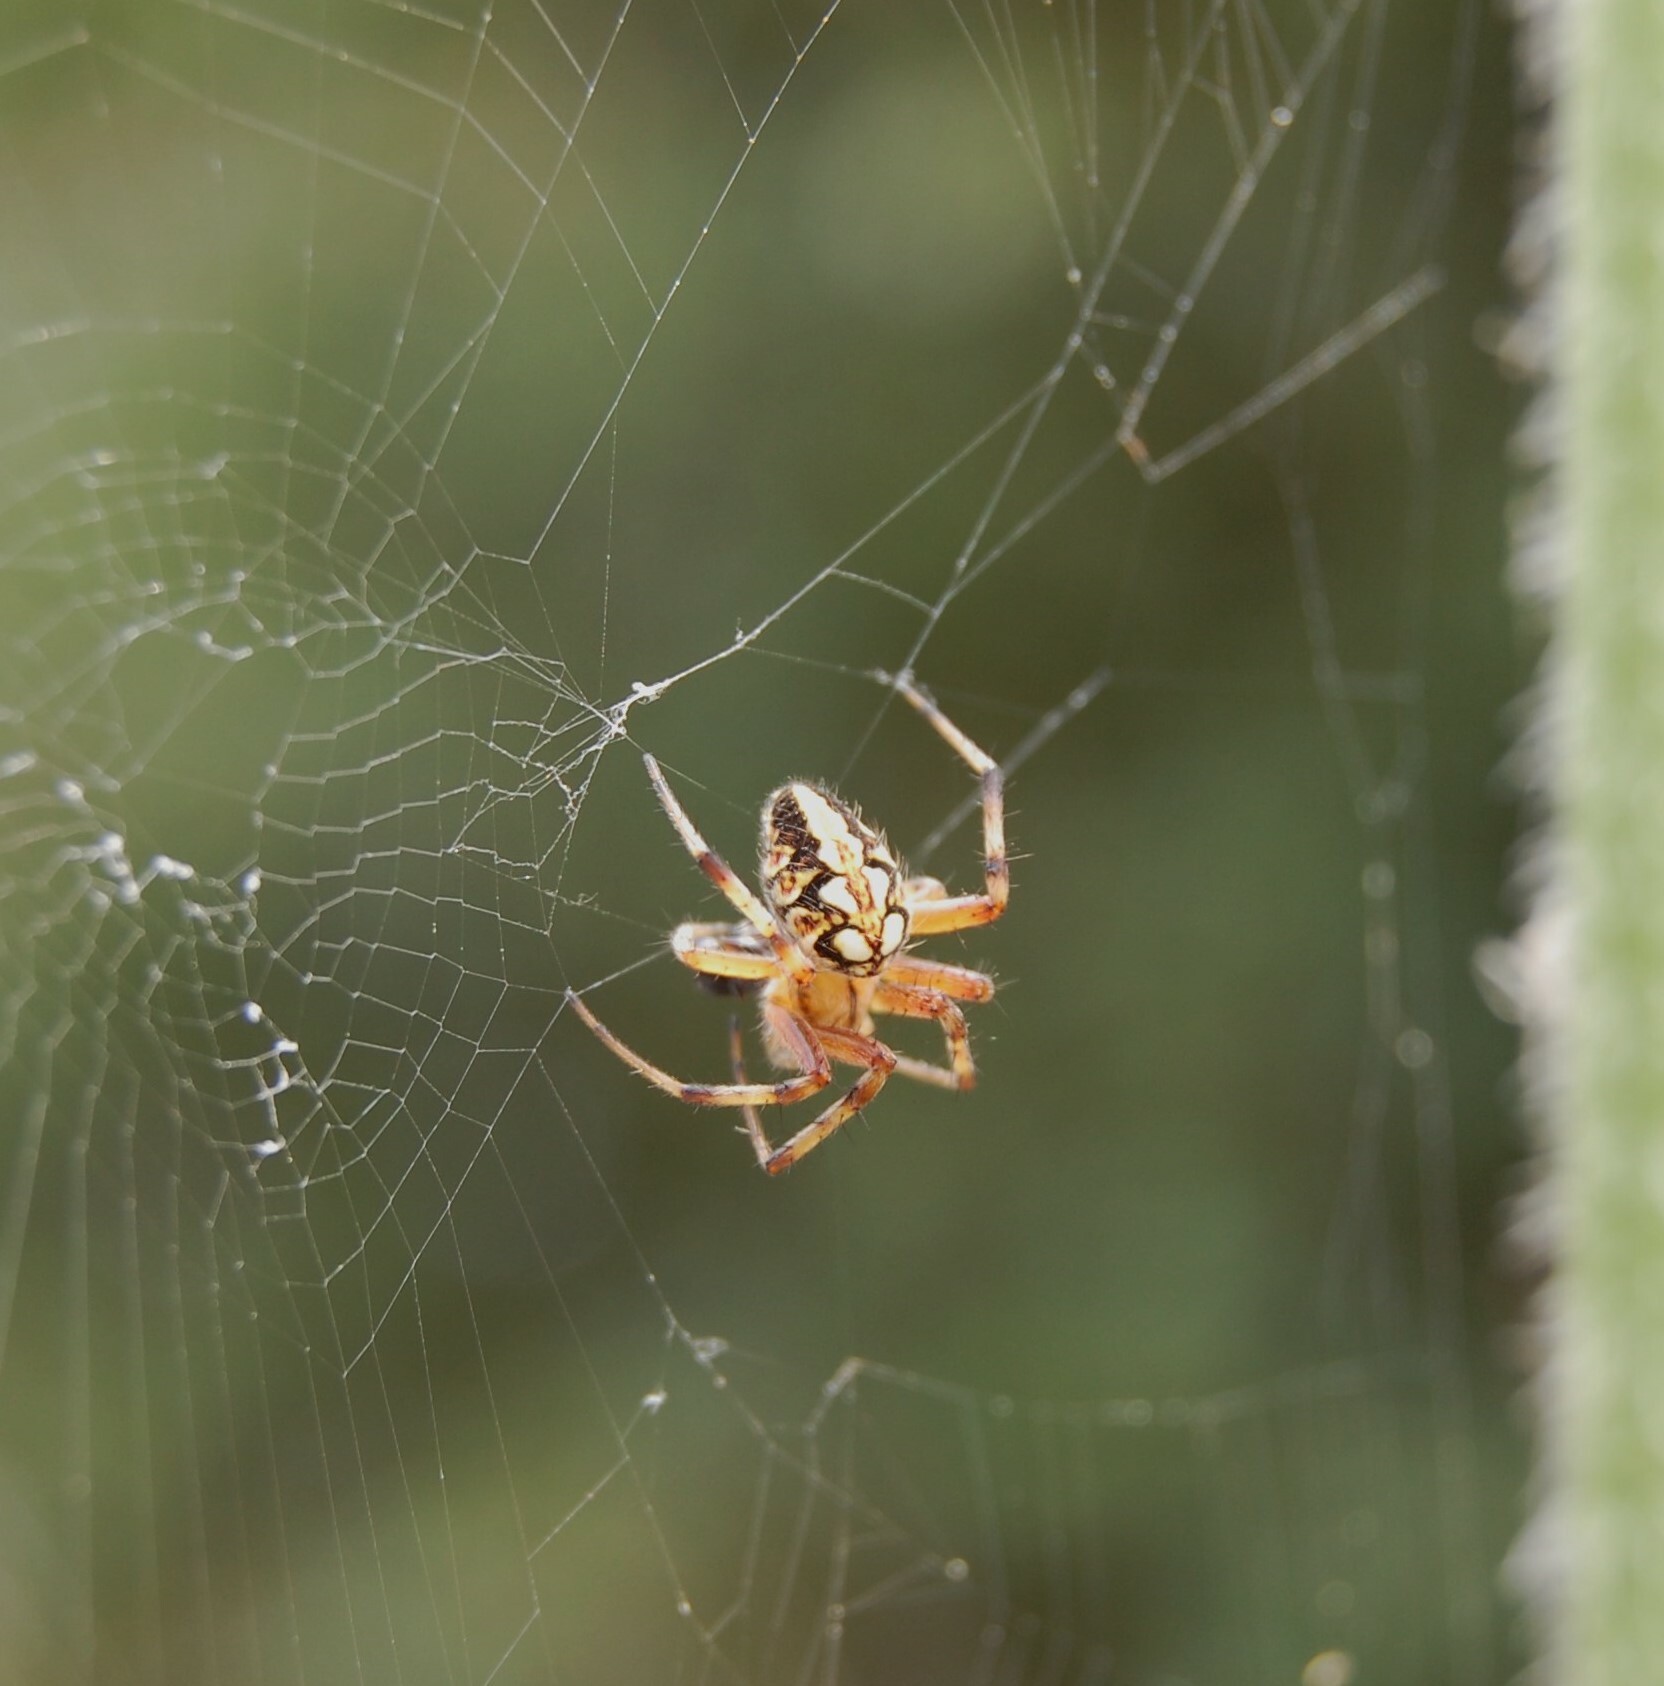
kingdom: Animalia
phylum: Arthropoda
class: Arachnida
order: Araneae
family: Araneidae
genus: Neoscona
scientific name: Neoscona adianta
